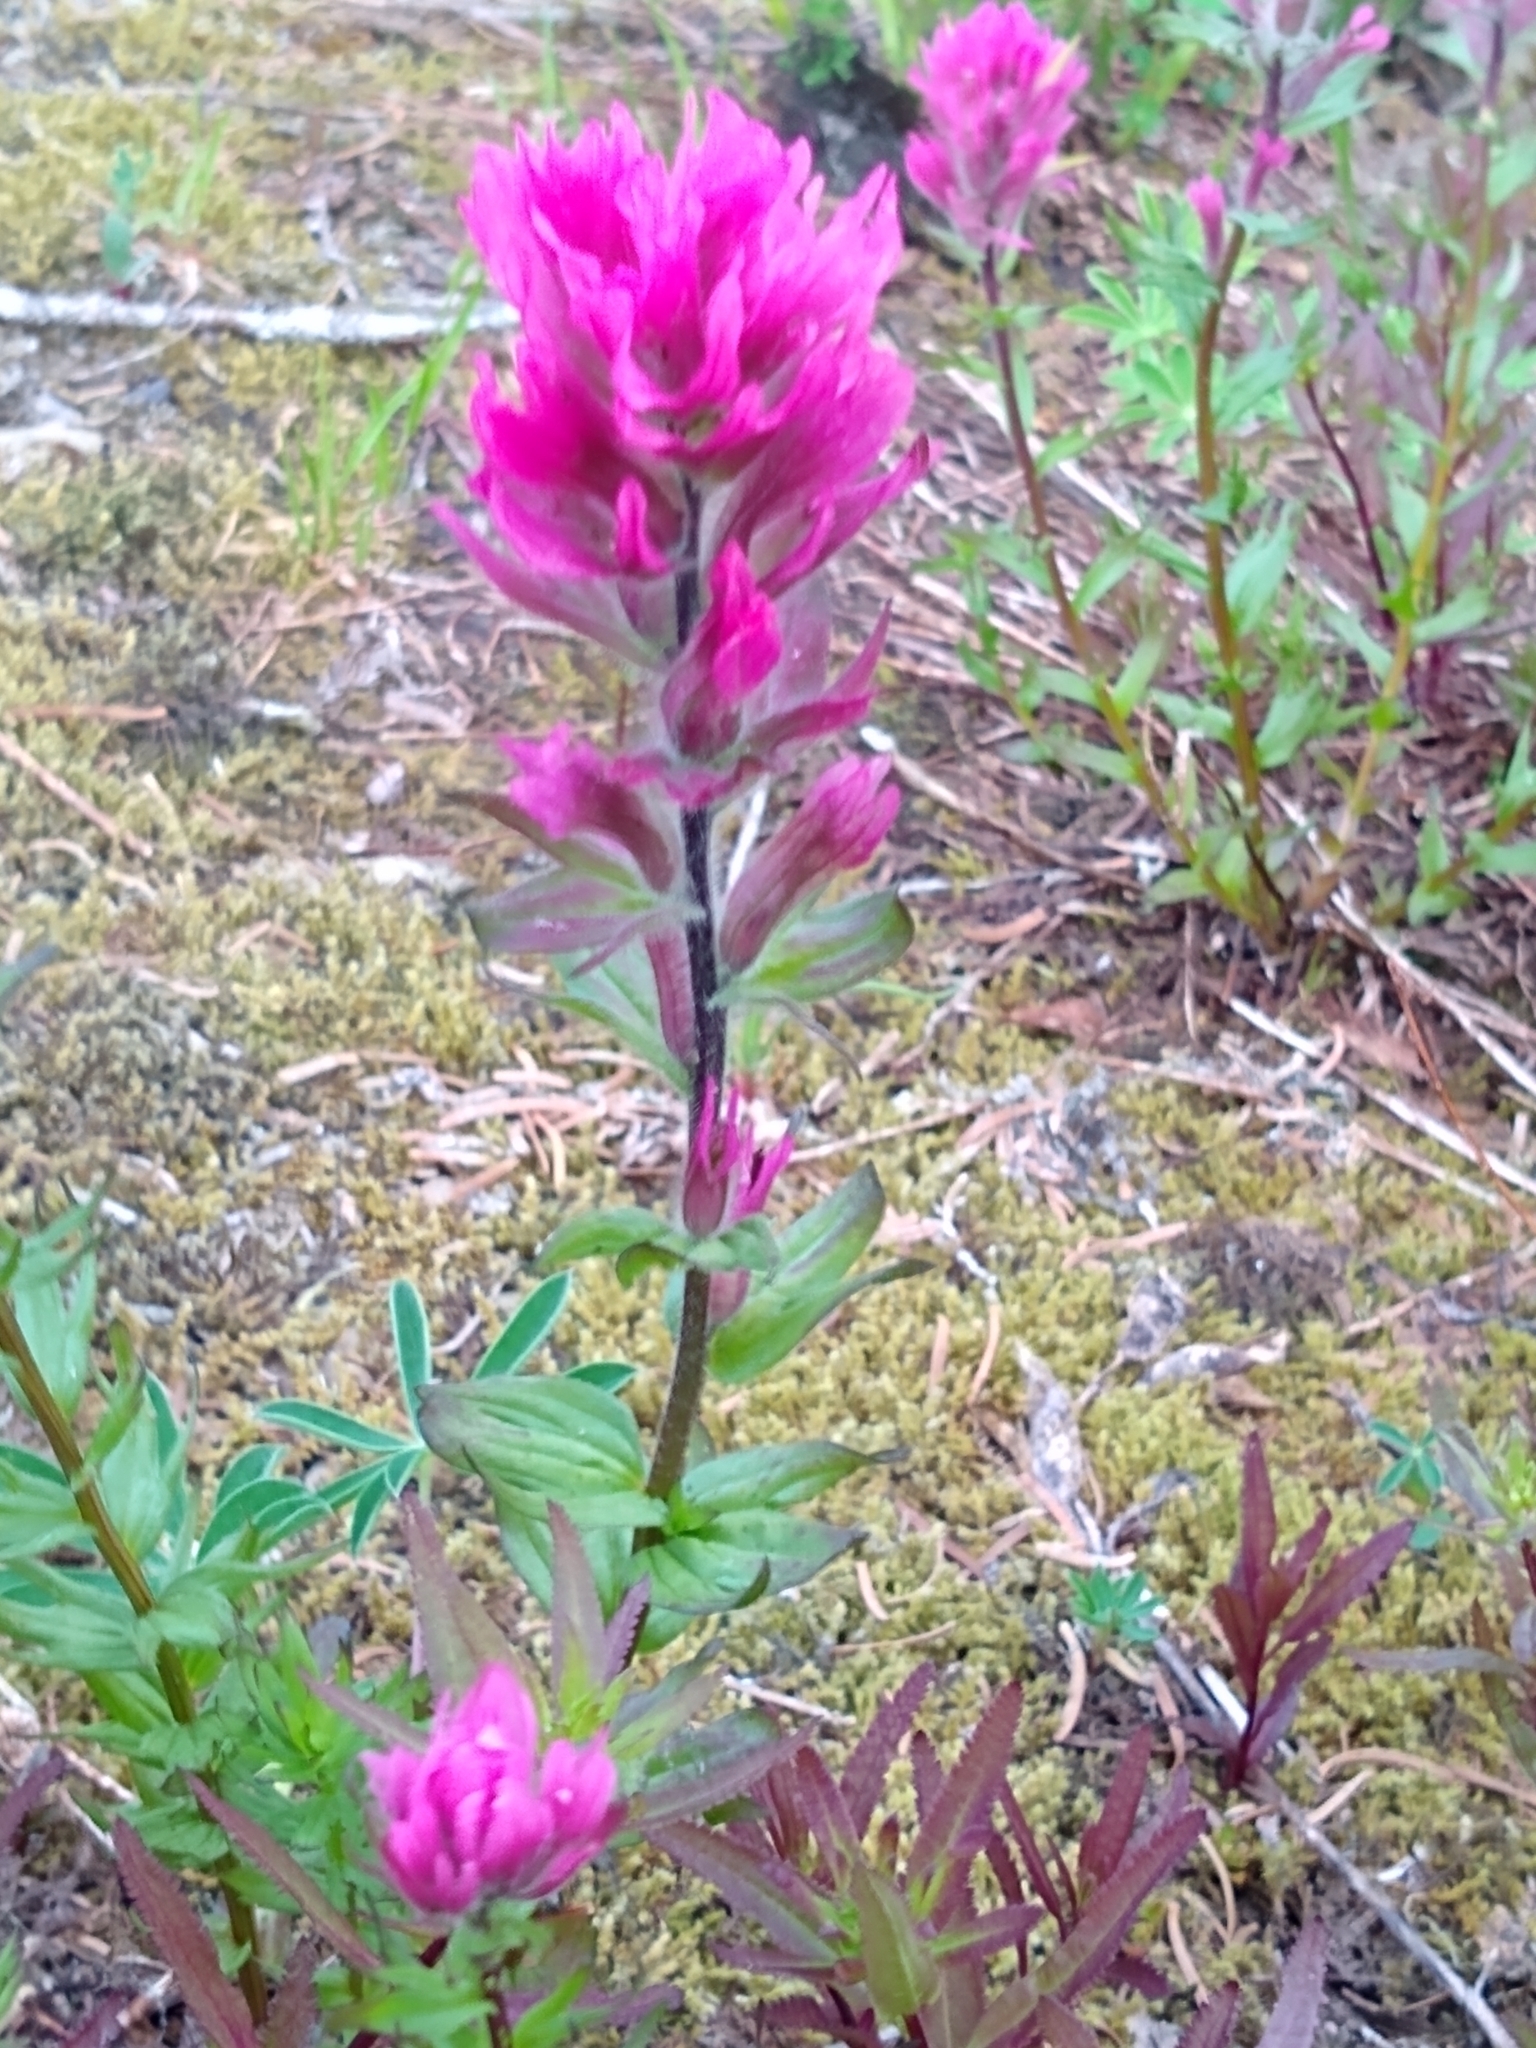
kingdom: Plantae
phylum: Tracheophyta
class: Magnoliopsida
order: Lamiales
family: Orobanchaceae
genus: Castilleja
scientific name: Castilleja parviflora
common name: Mountain paintbrush
